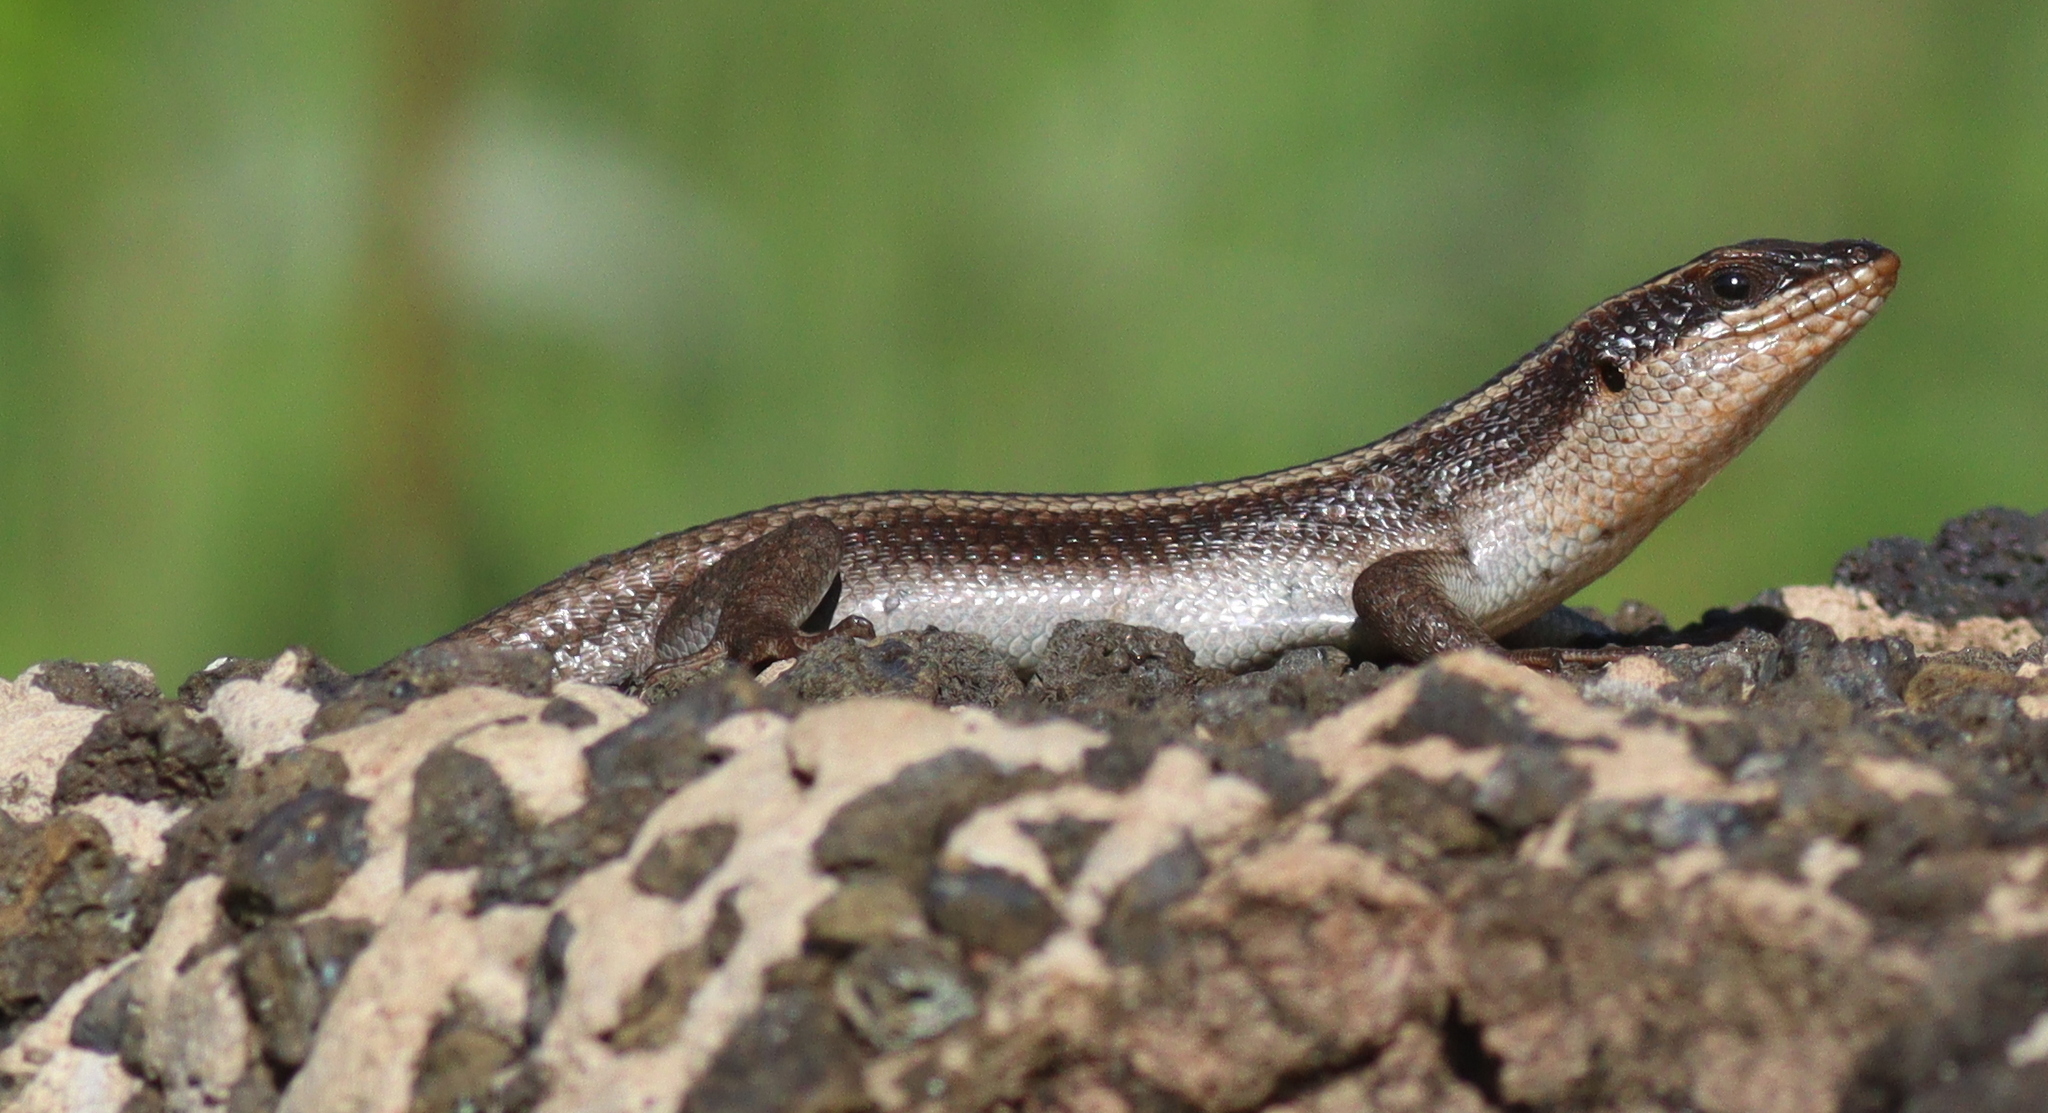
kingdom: Animalia
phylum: Chordata
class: Squamata
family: Scincidae
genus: Trachylepis
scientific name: Trachylepis striata
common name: African striped mabuya
